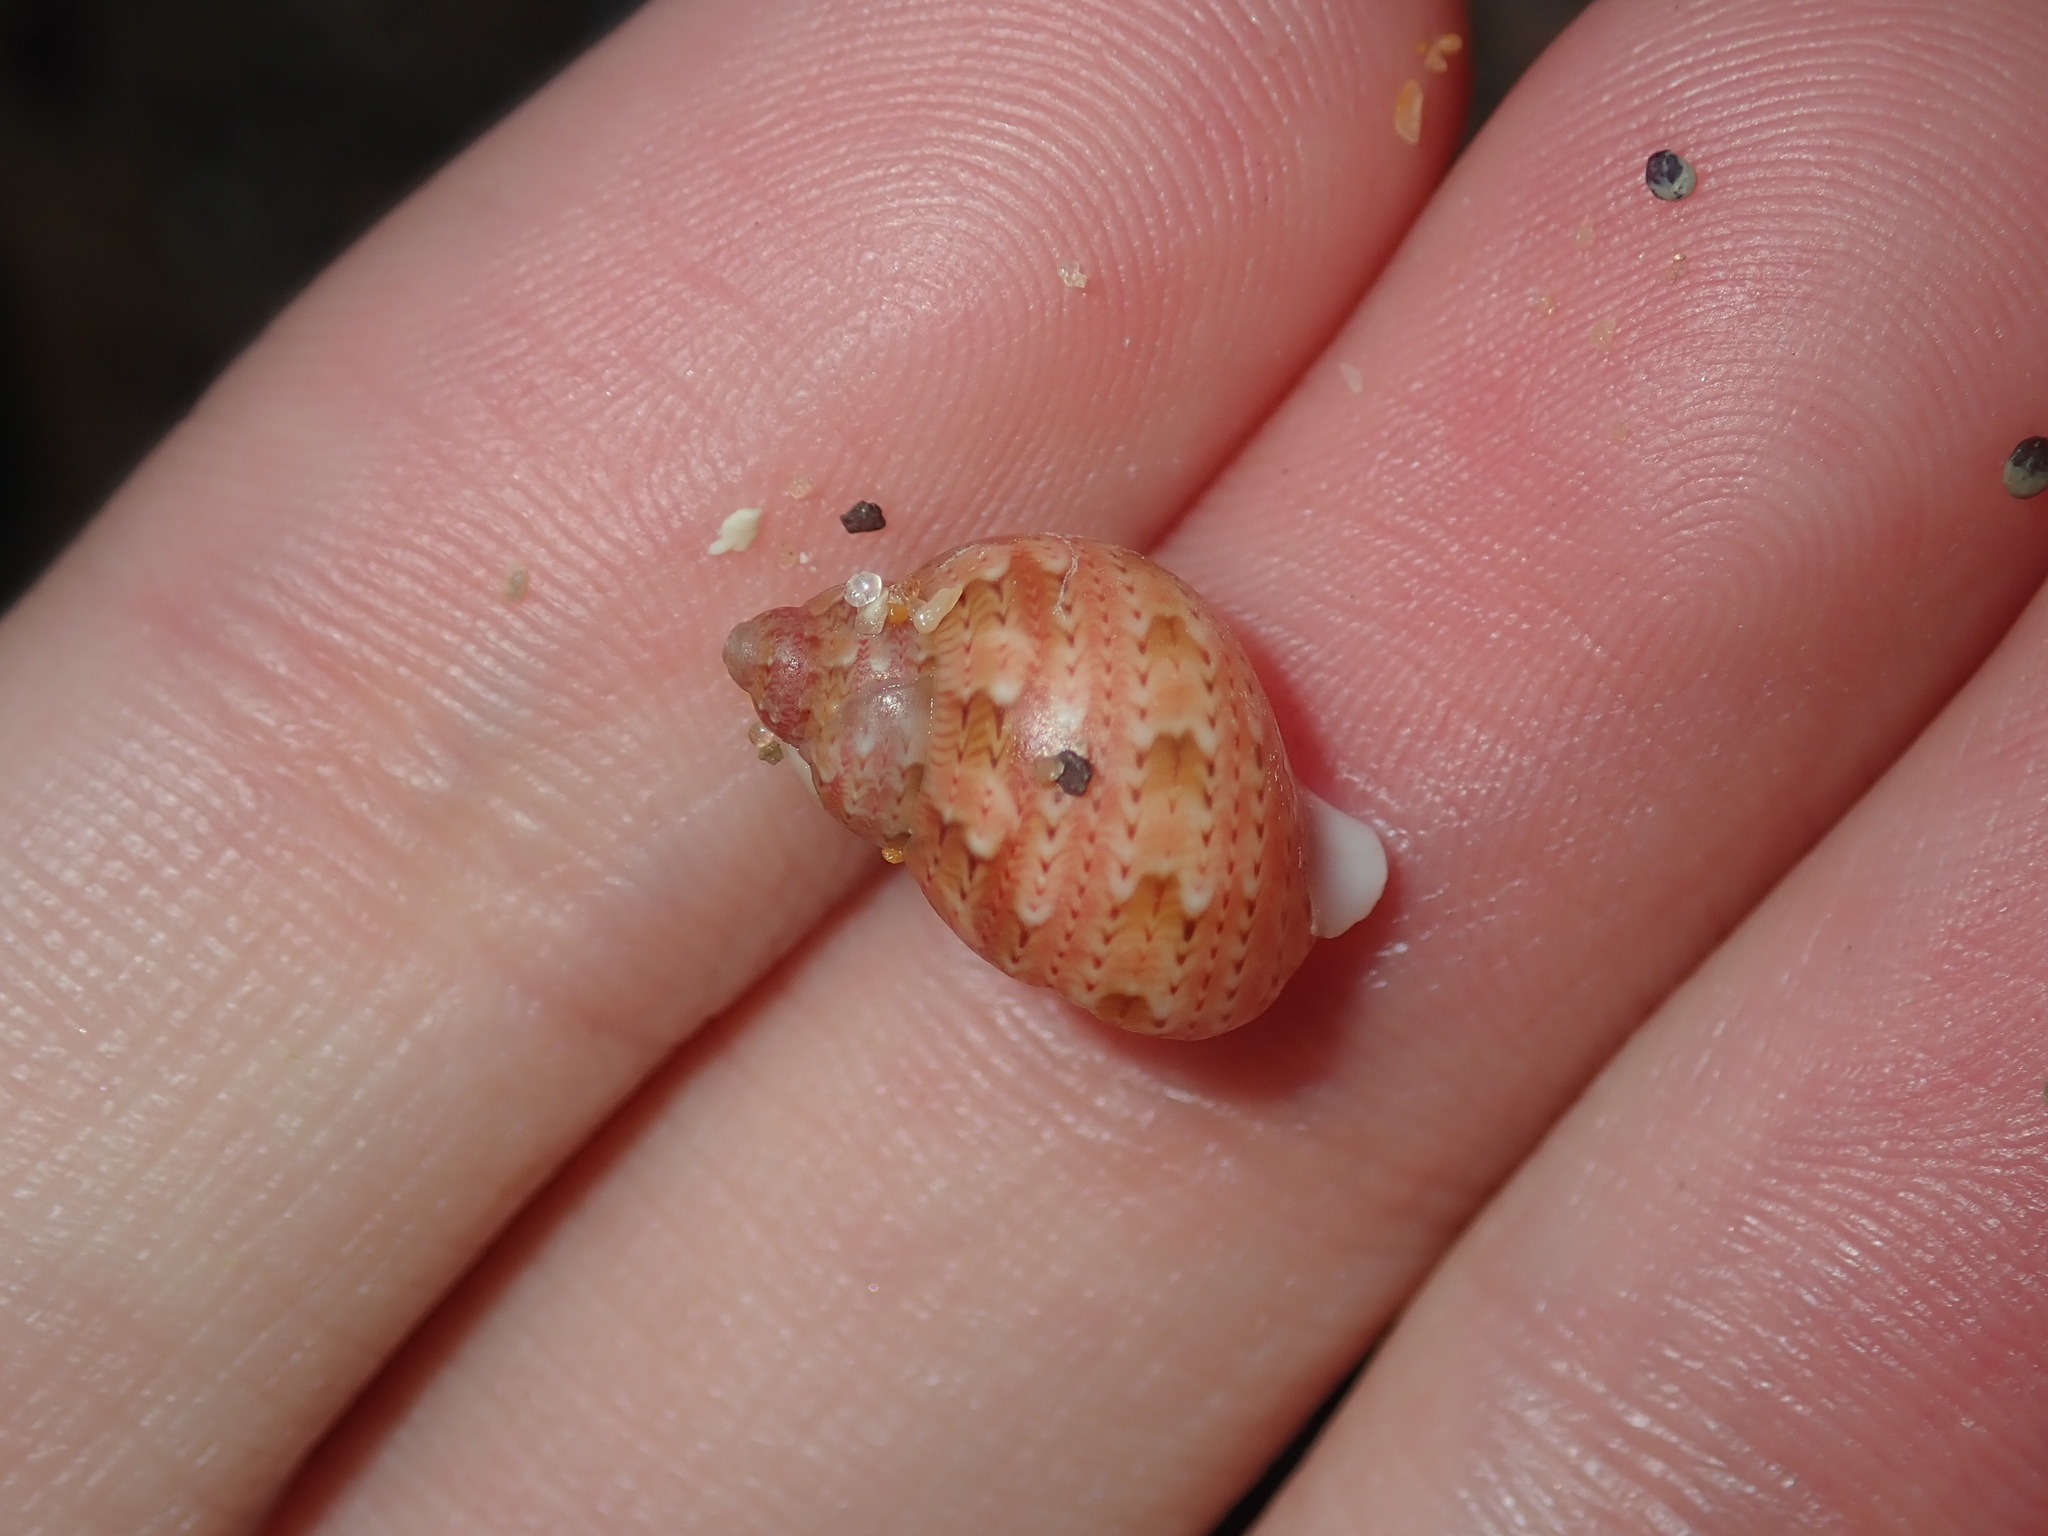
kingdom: Animalia
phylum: Mollusca
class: Gastropoda
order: Trochida
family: Phasianellidae
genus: Phasianella
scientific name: Phasianella ventricosa
